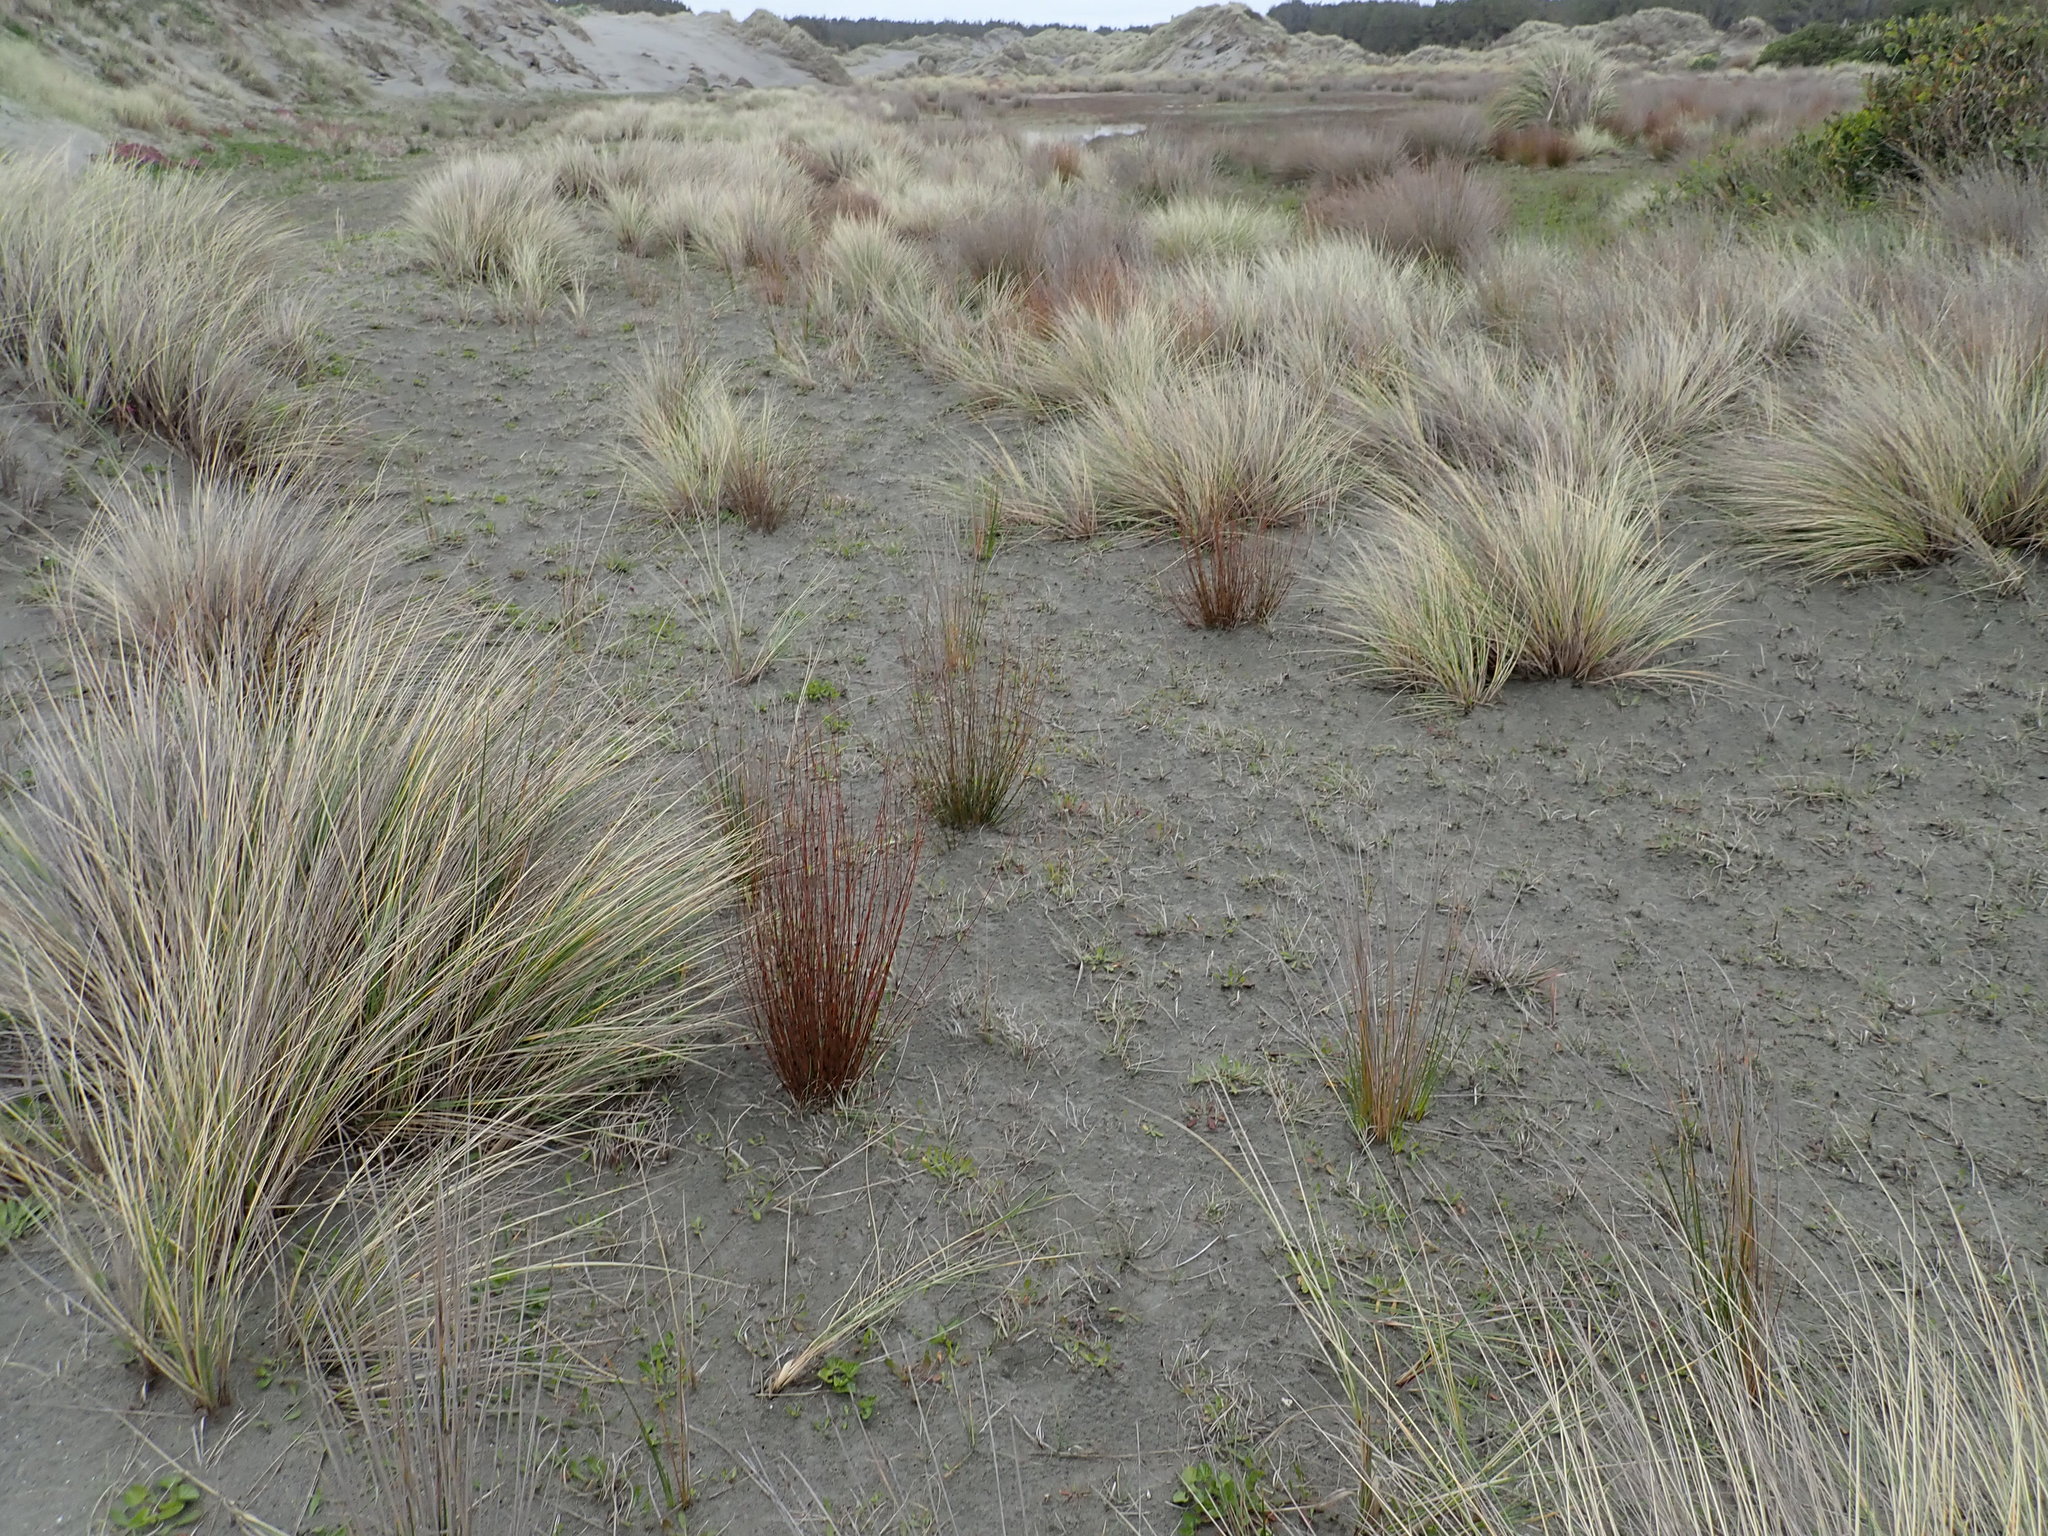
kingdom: Plantae
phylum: Tracheophyta
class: Liliopsida
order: Poales
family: Restionaceae
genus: Apodasmia
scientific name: Apodasmia similis
